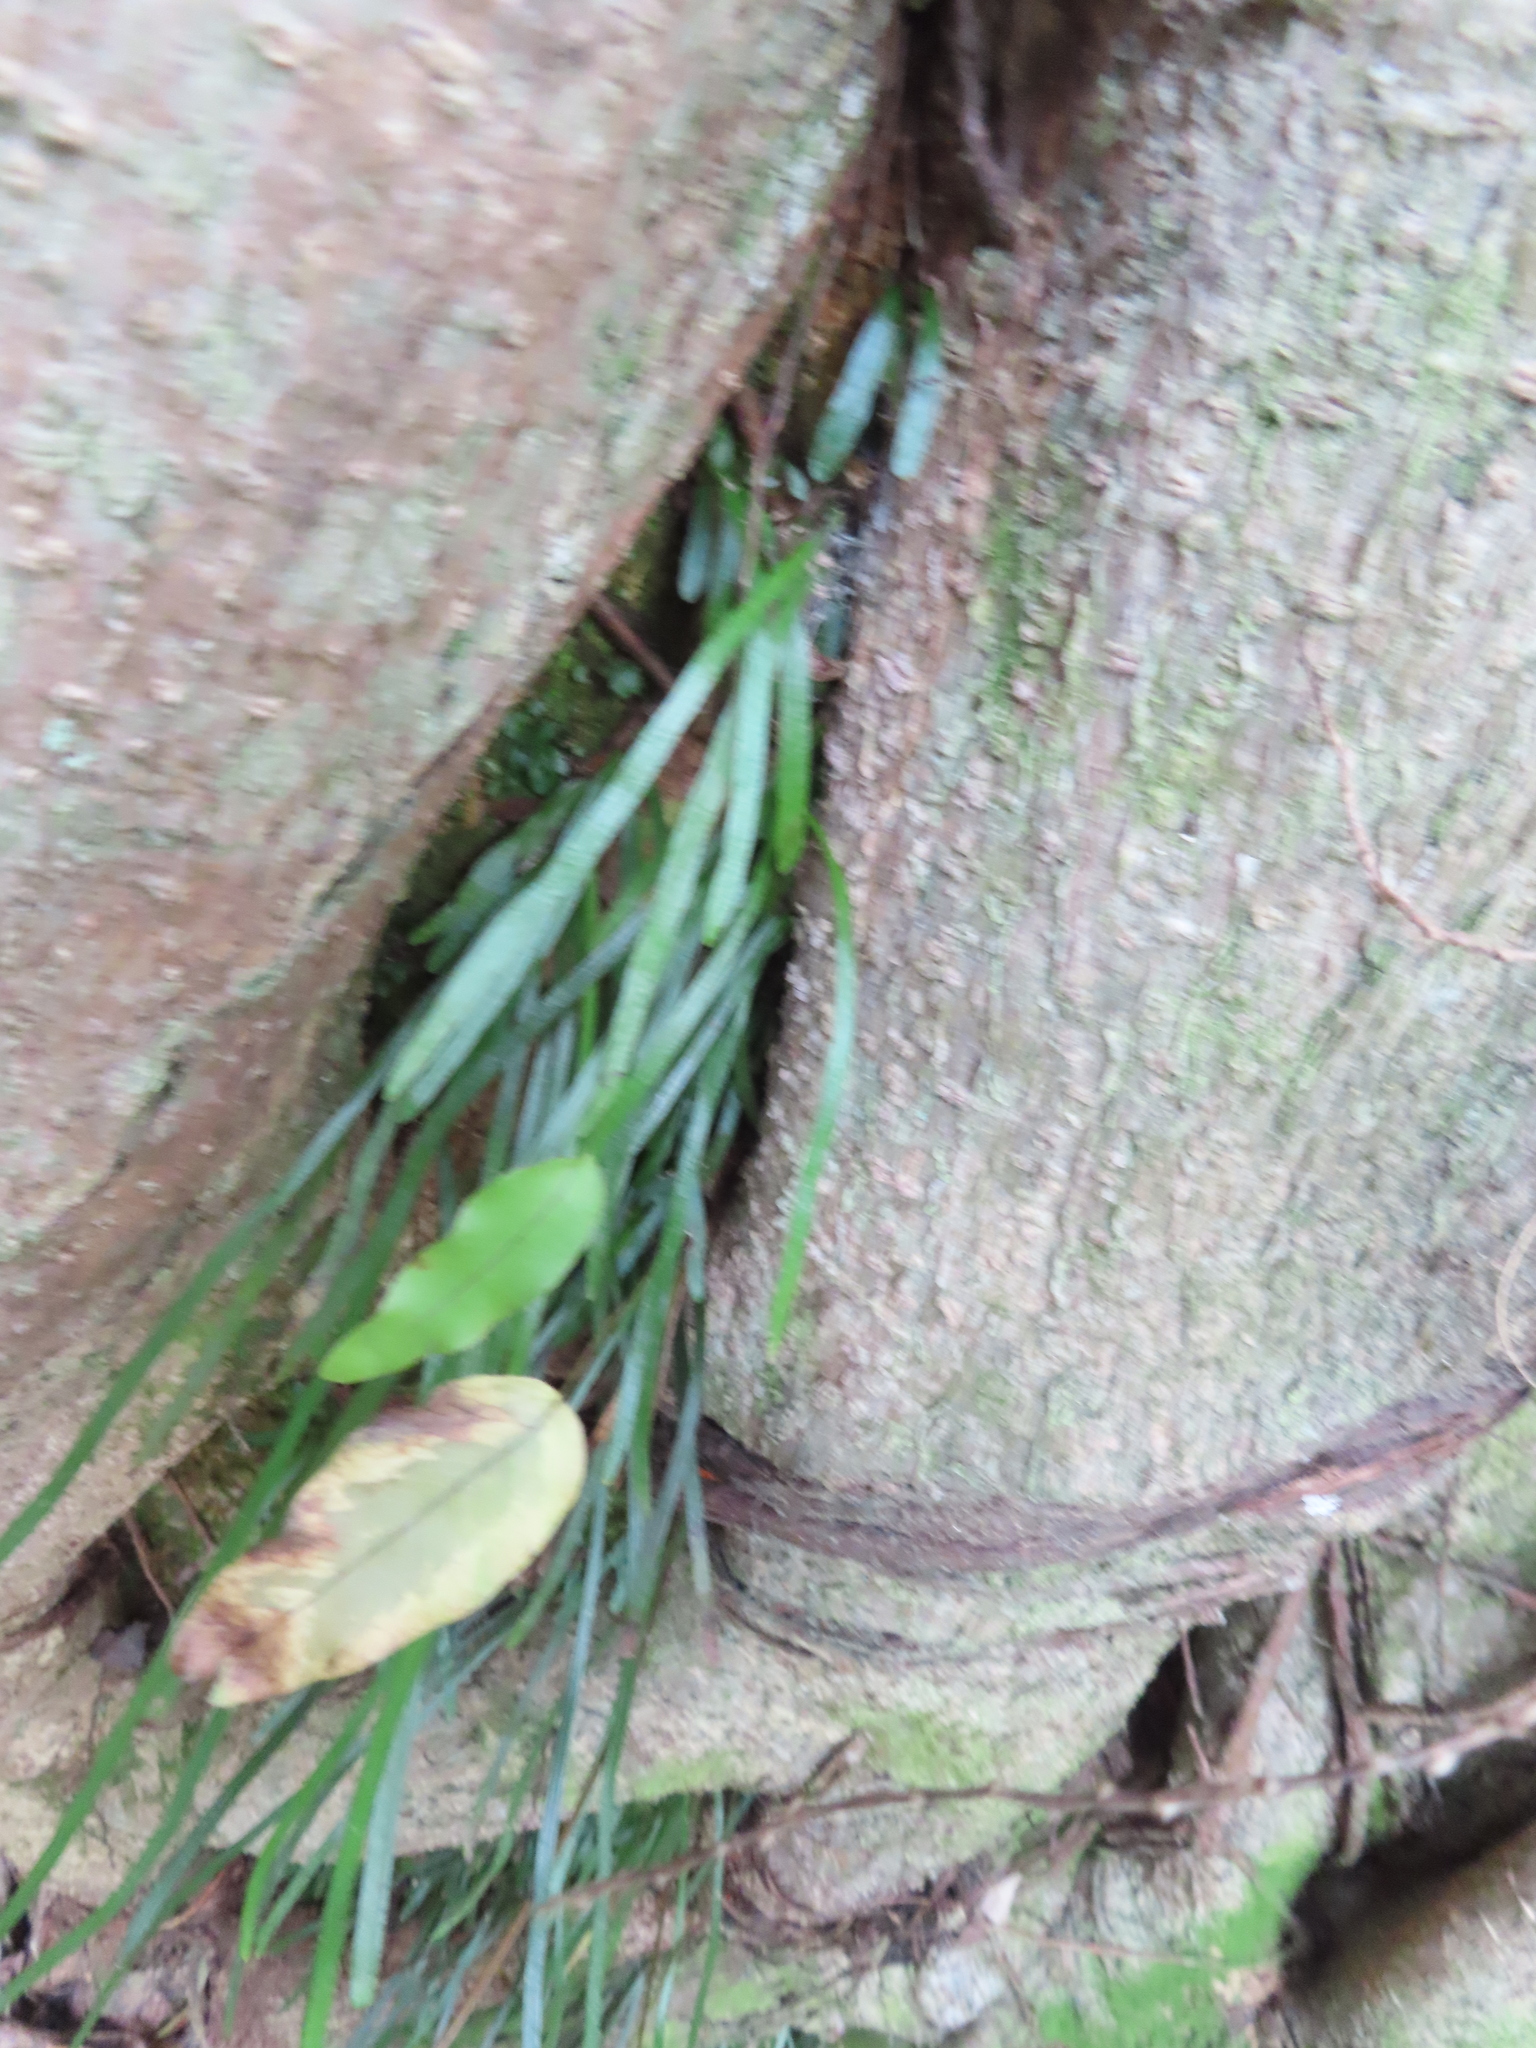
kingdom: Plantae
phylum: Tracheophyta
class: Polypodiopsida
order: Polypodiales
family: Pteridaceae
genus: Vittaria
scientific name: Vittaria lineata
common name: Shoestring fern
